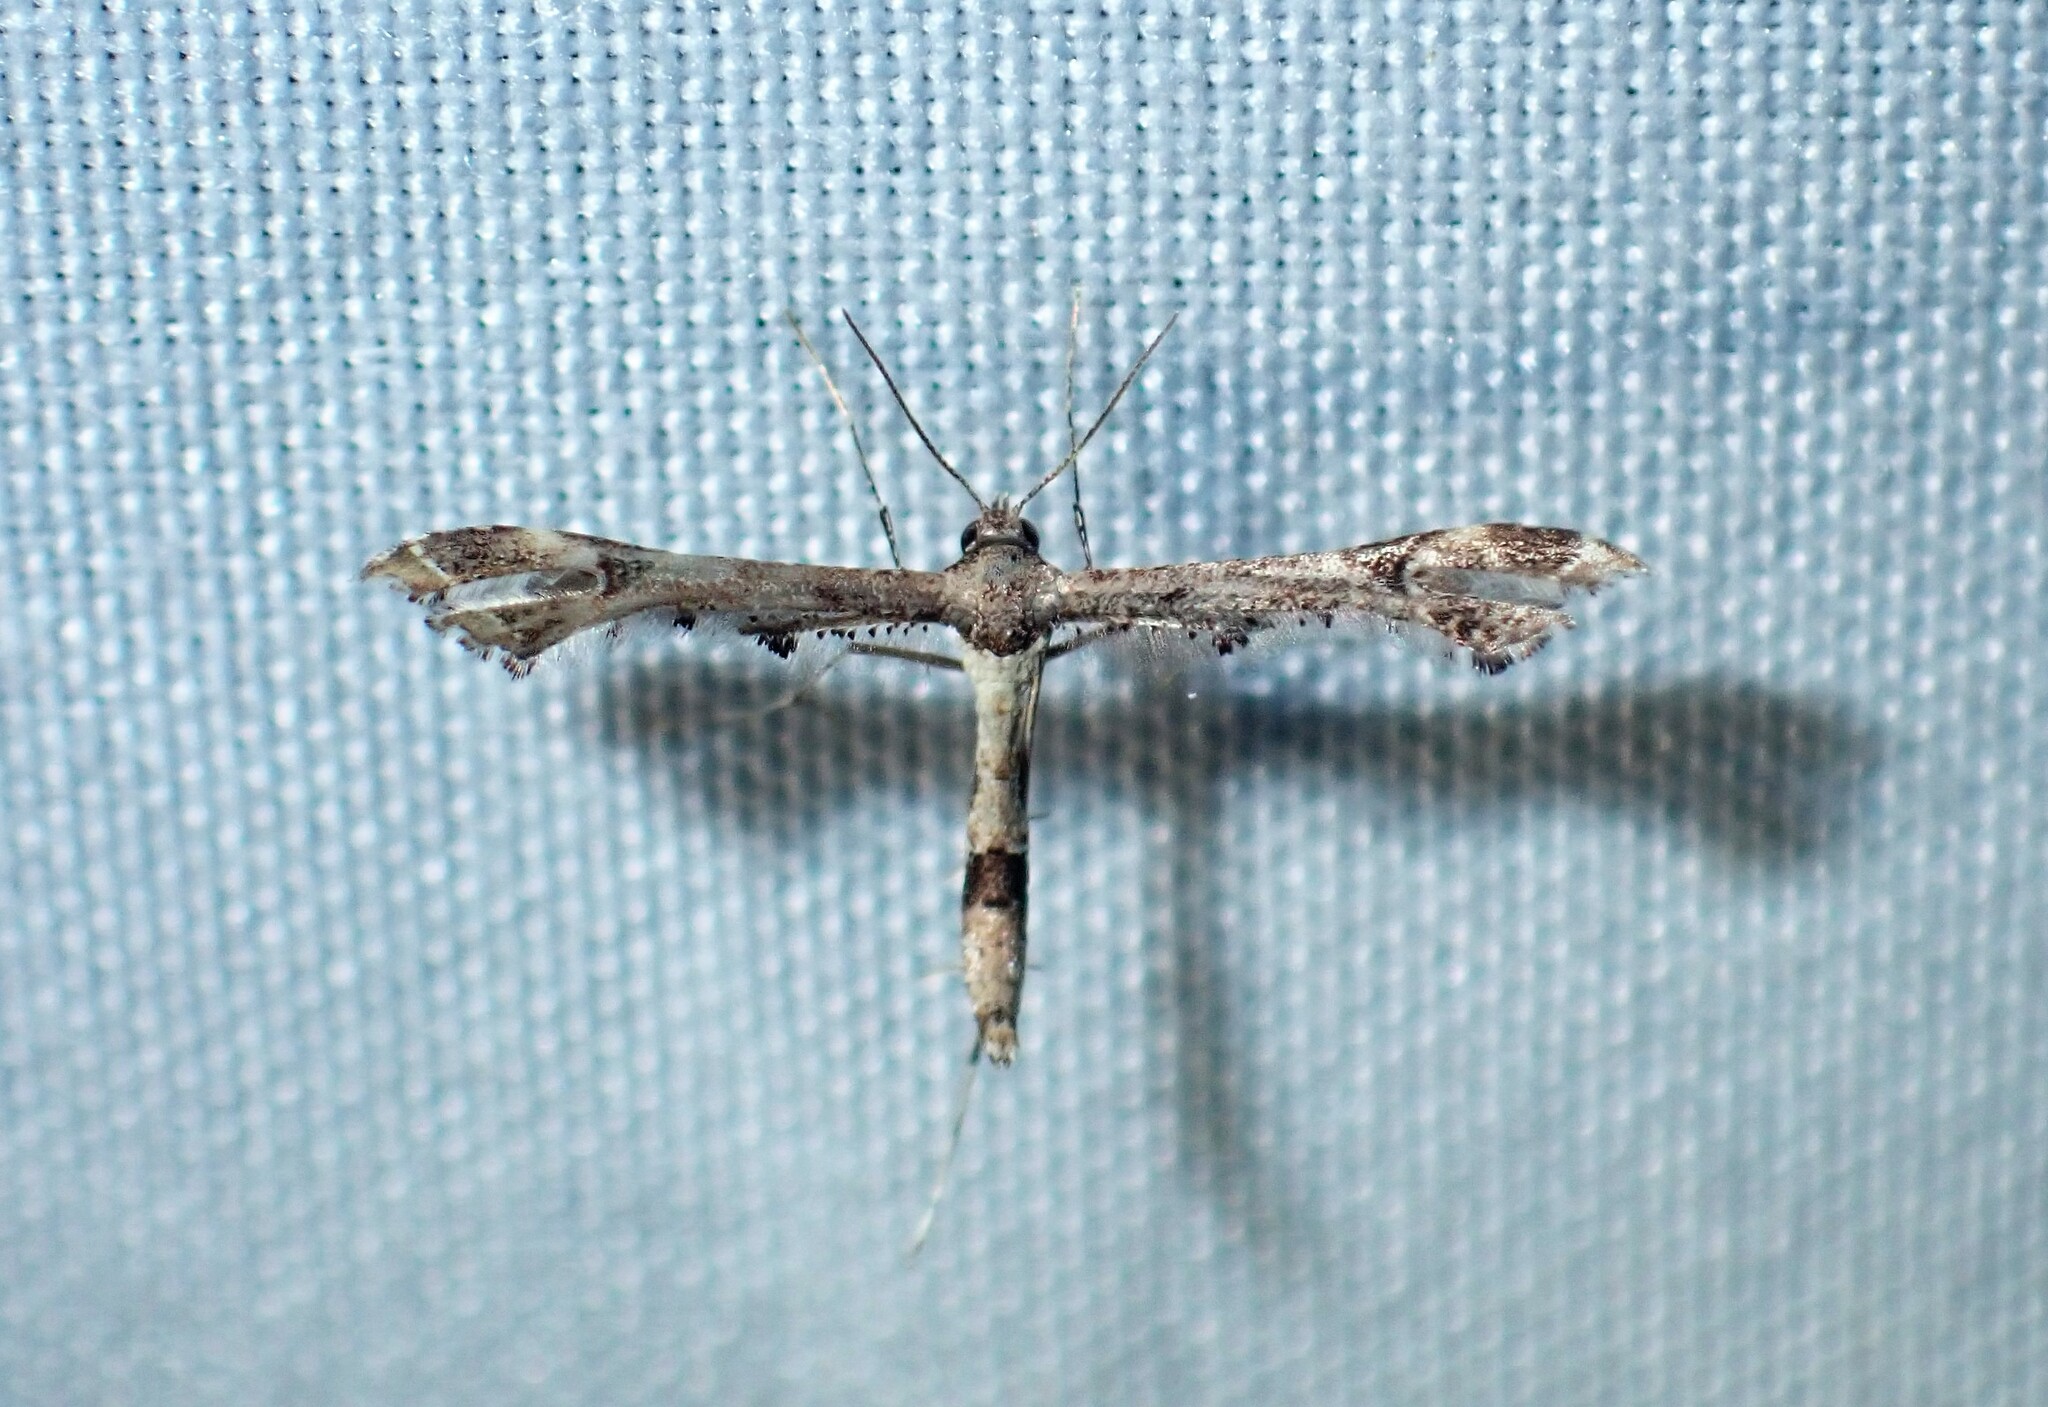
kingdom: Animalia
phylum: Arthropoda
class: Insecta
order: Lepidoptera
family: Pterophoridae
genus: Lantanophaga
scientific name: Lantanophaga pusillidactylus
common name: Moth
